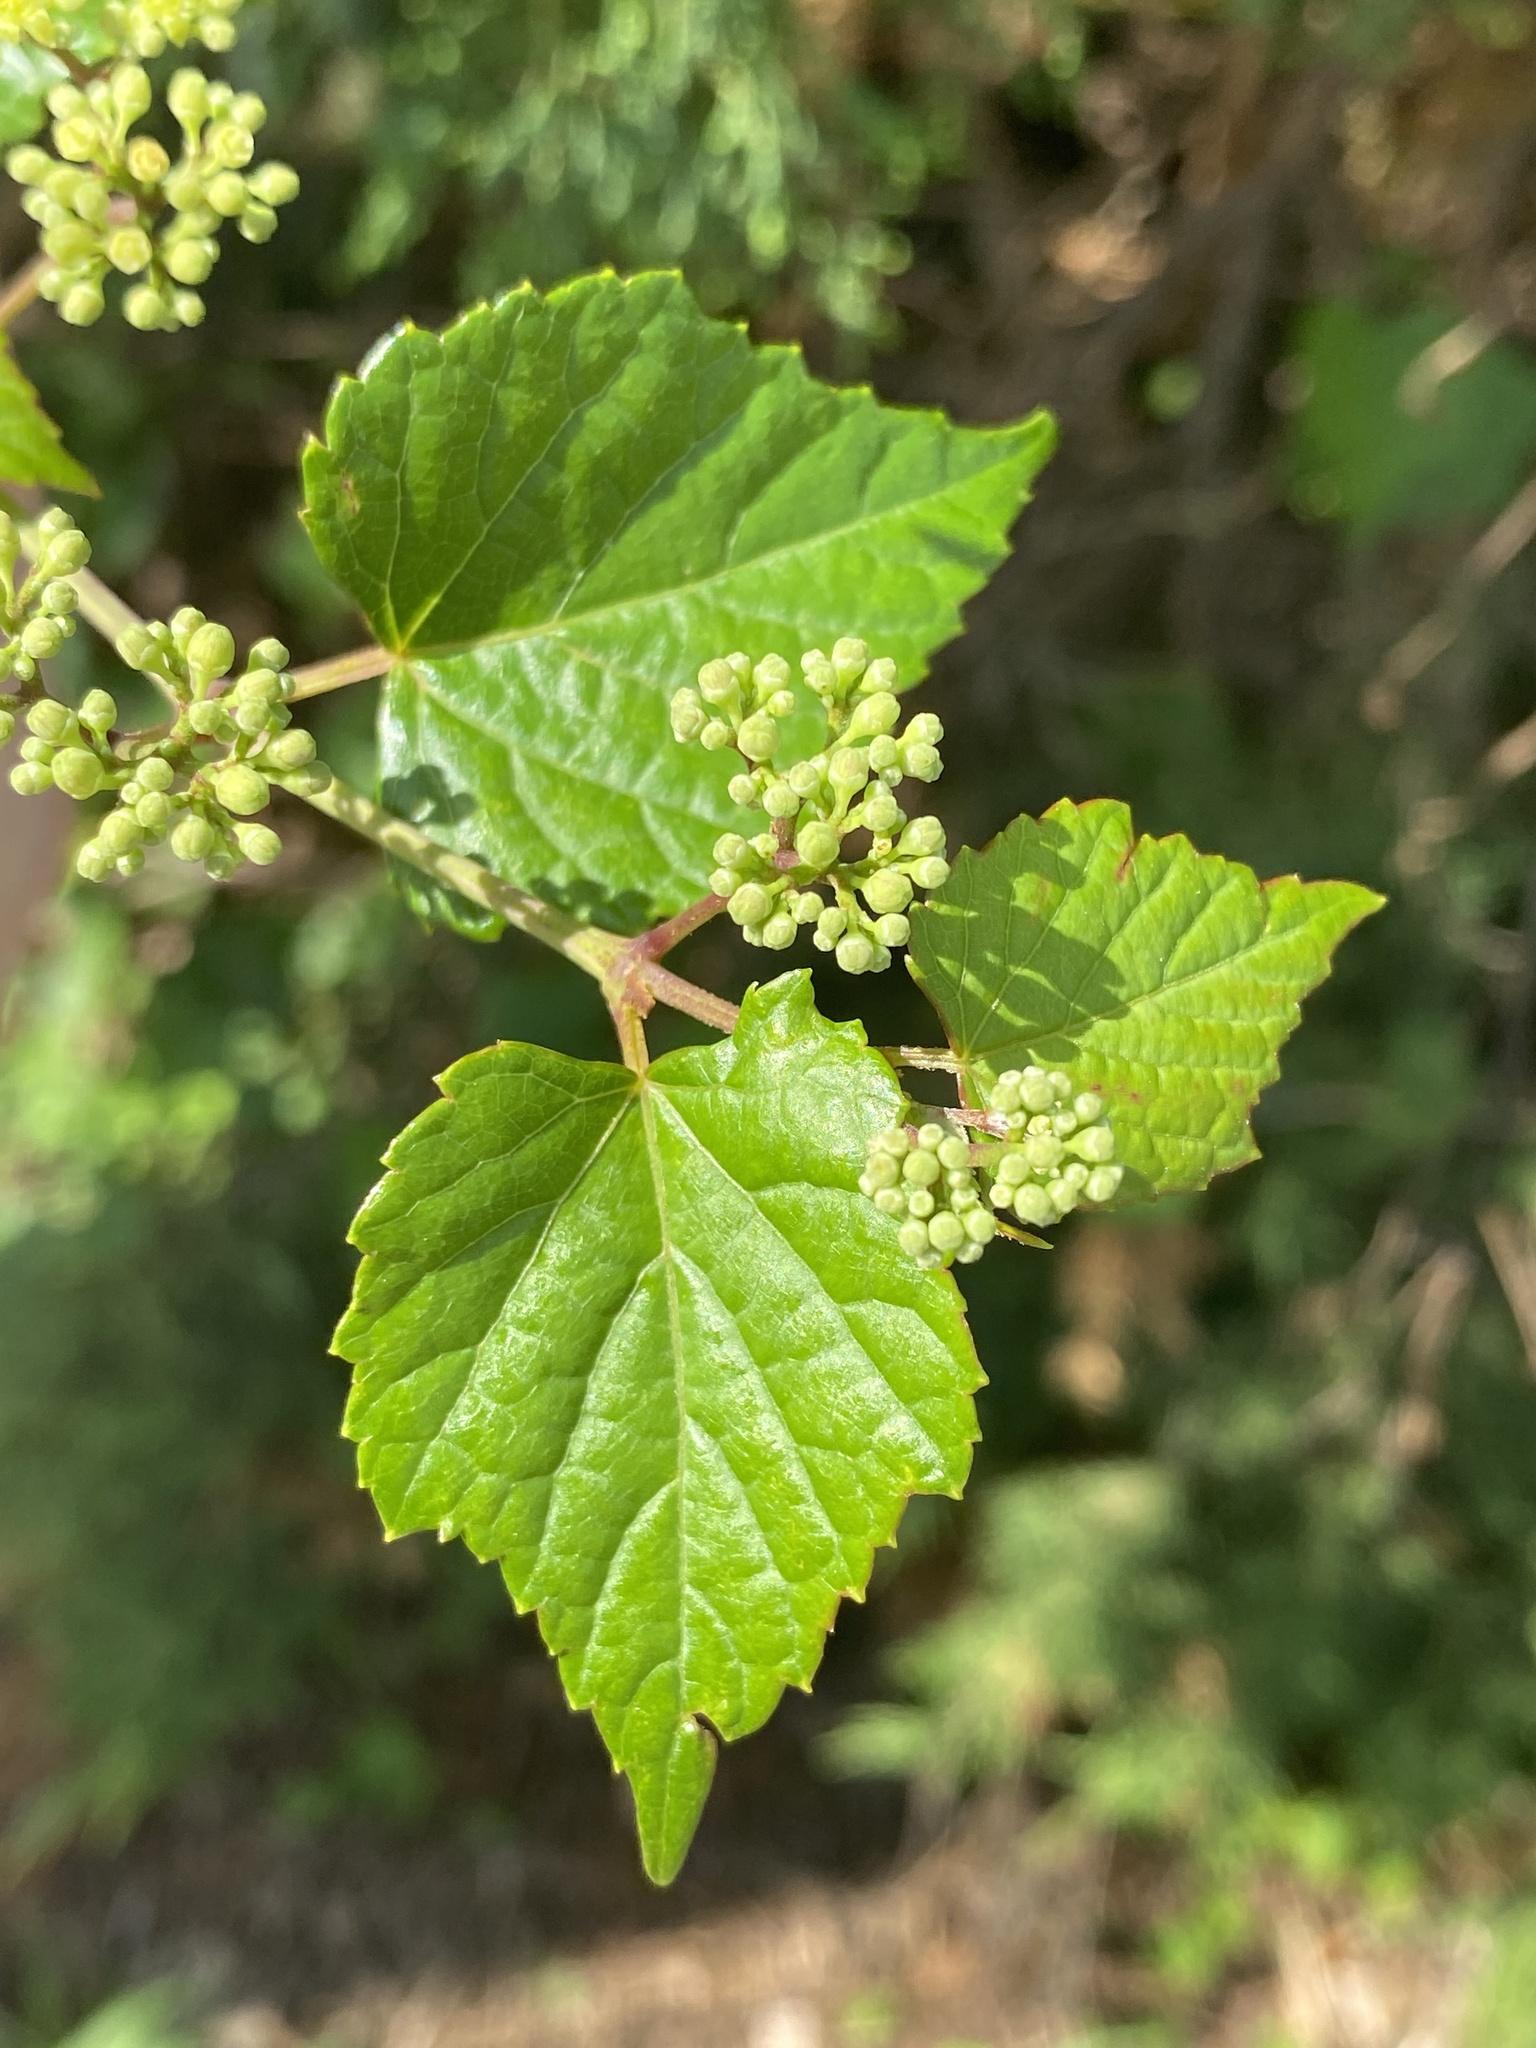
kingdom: Plantae
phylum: Tracheophyta
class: Magnoliopsida
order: Vitales
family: Vitaceae
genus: Ampelopsis
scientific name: Ampelopsis glandulosa
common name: Amur peppervine
